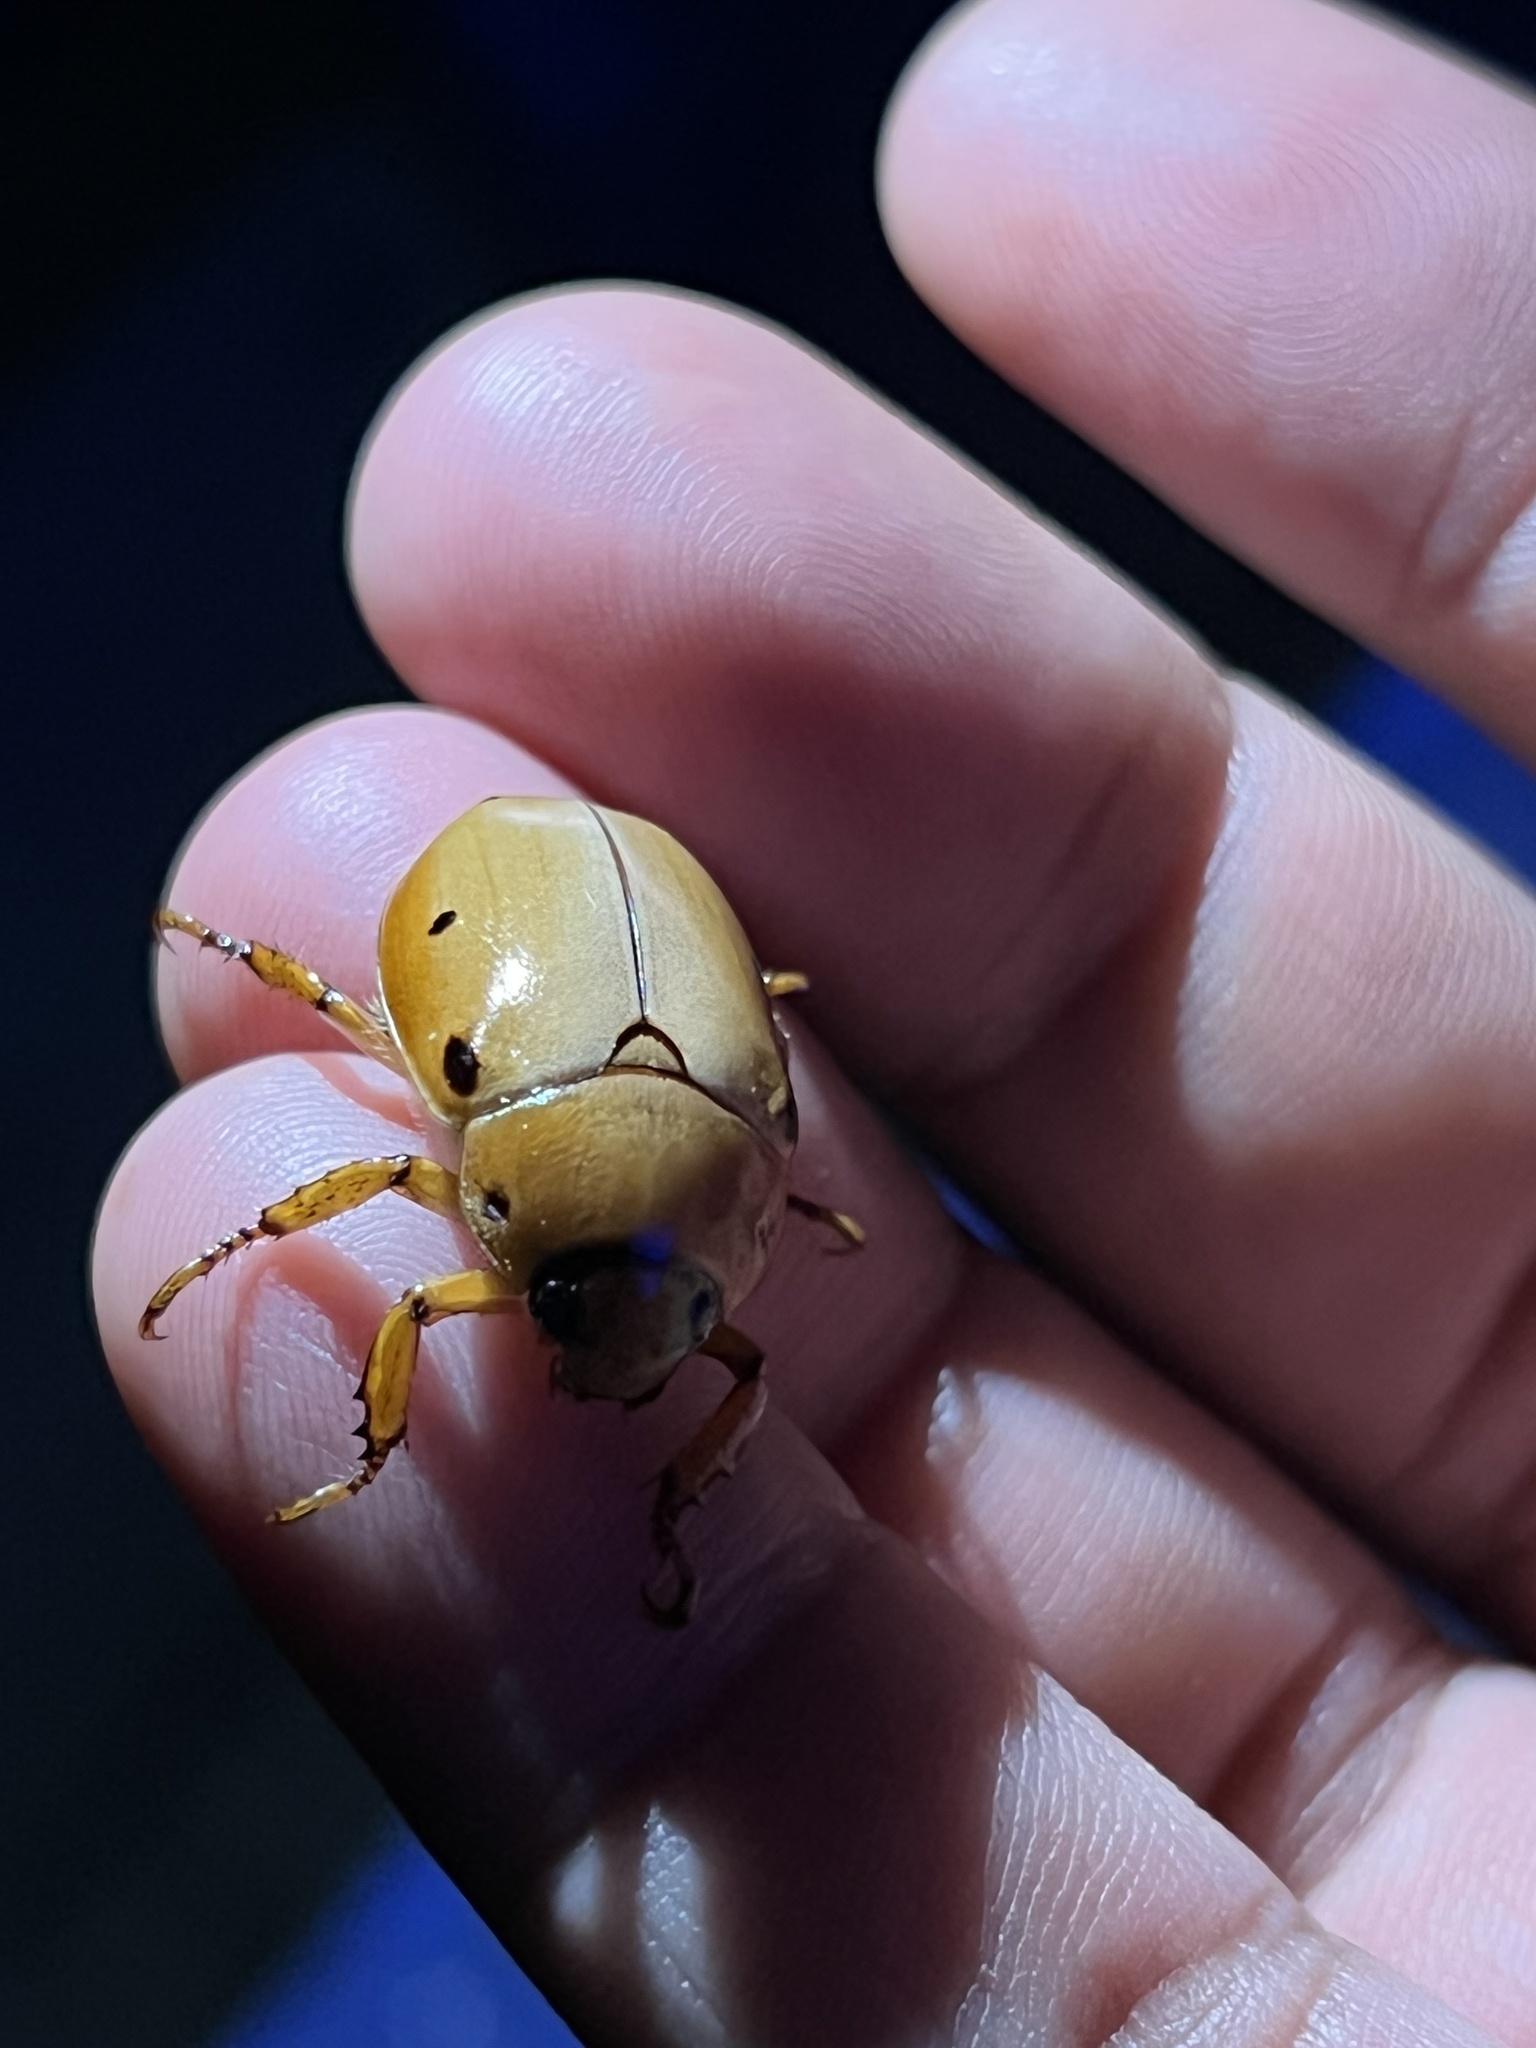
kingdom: Animalia
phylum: Arthropoda
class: Insecta
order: Coleoptera
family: Scarabaeidae
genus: Pelidnota
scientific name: Pelidnota punctata
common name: Grapevine beetle
